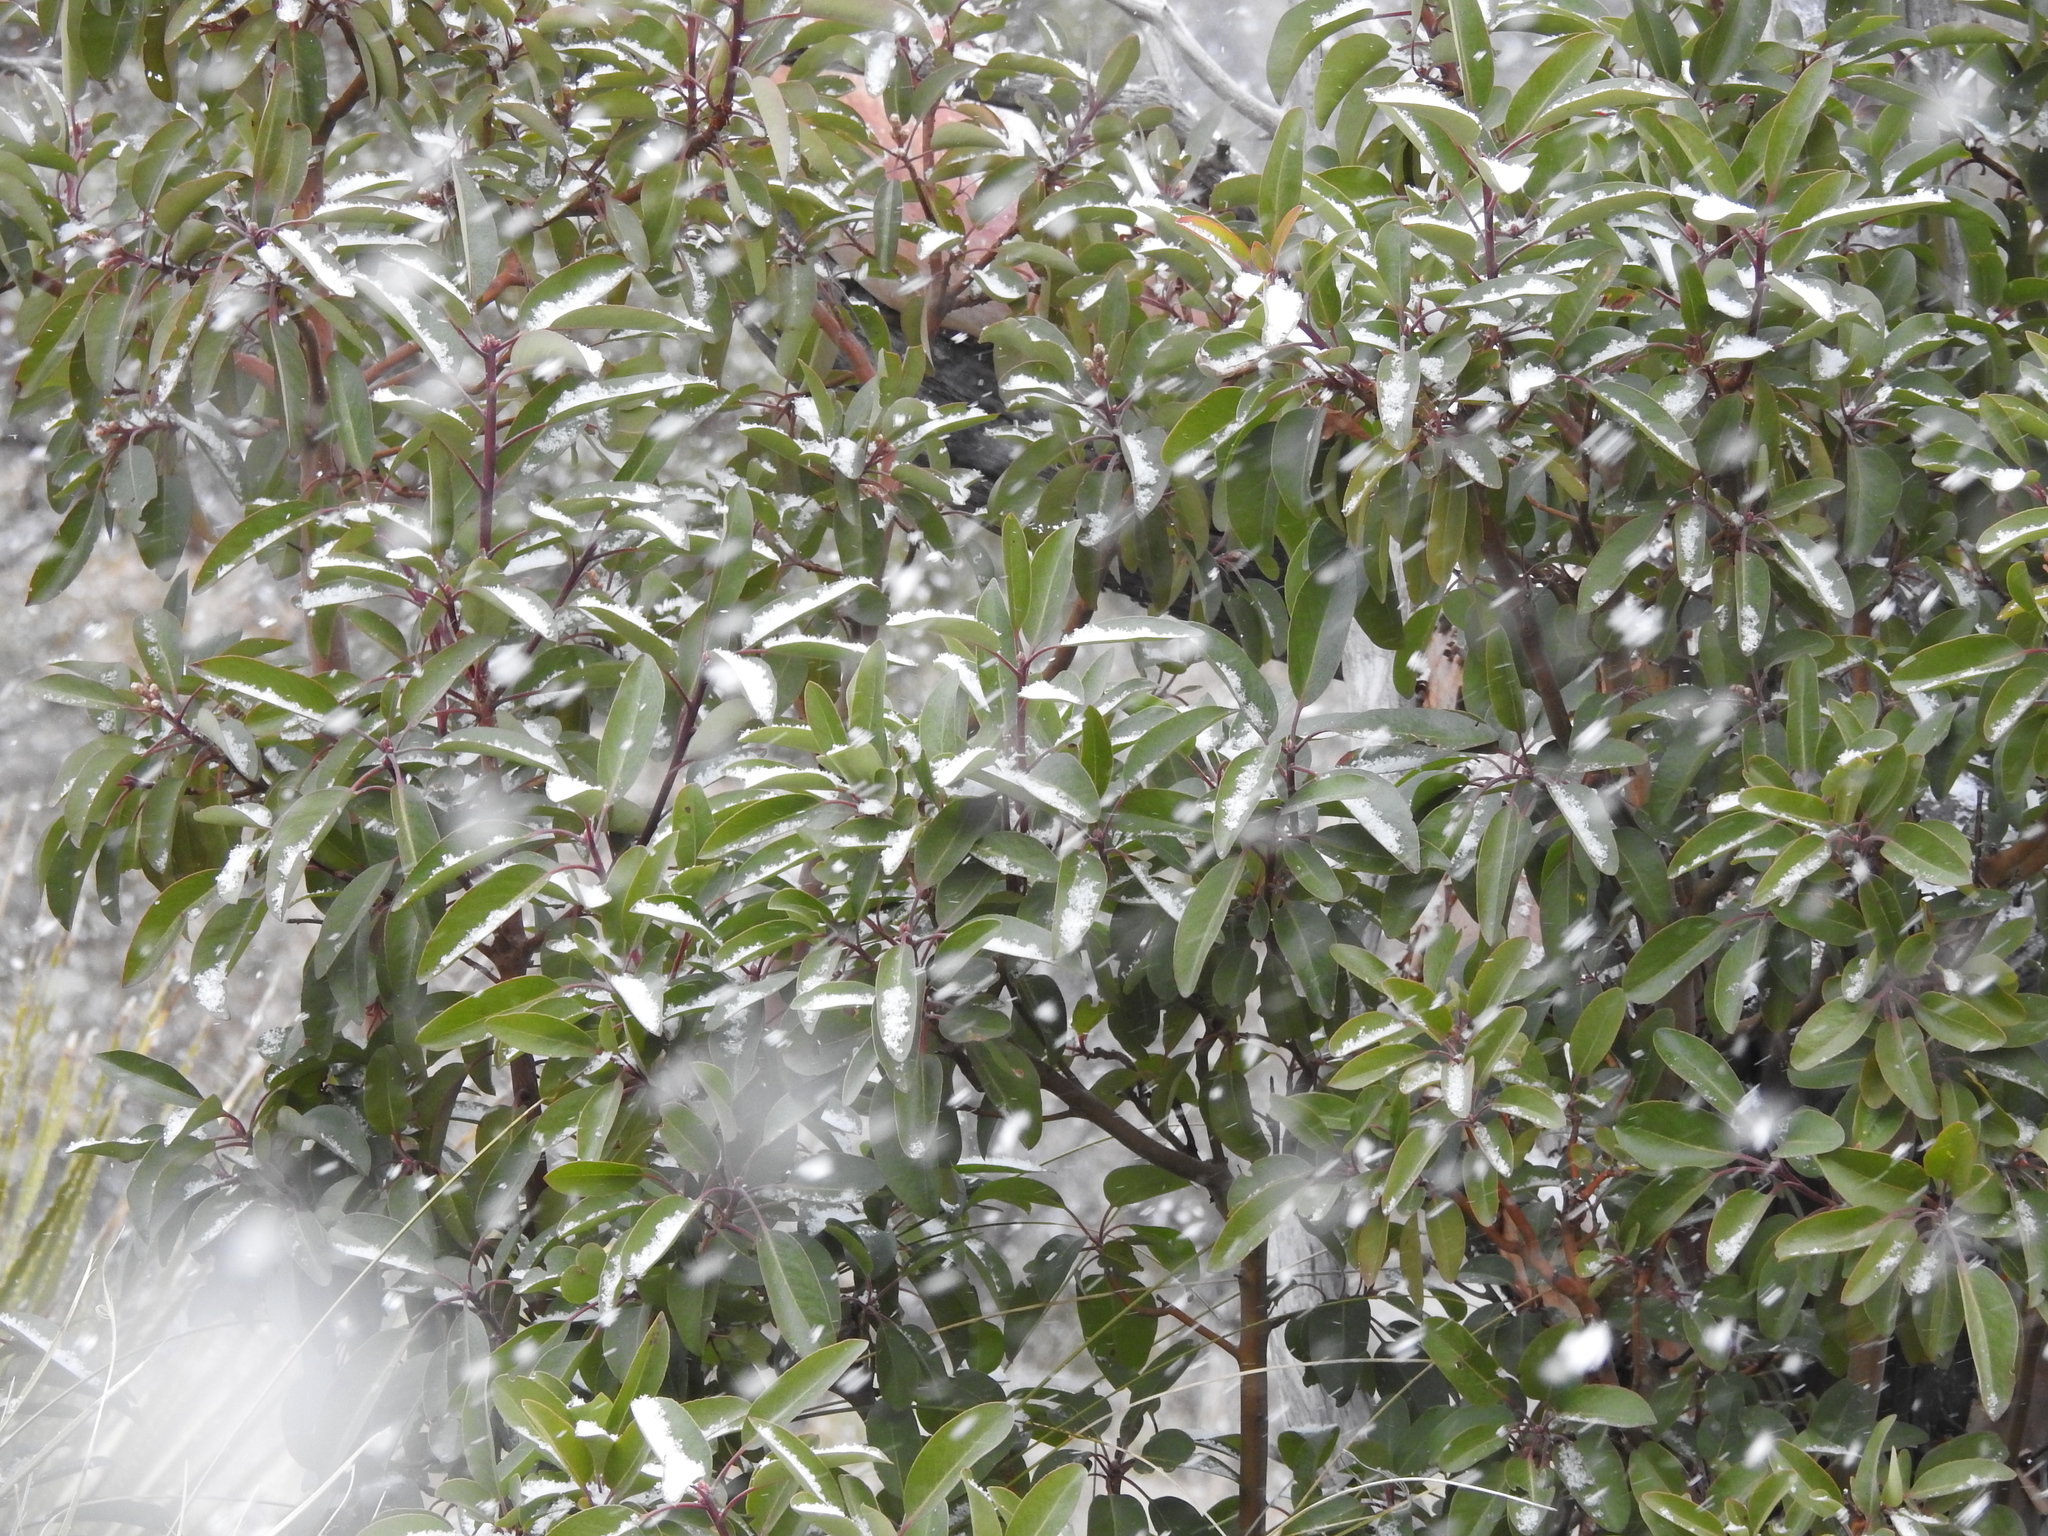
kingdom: Plantae
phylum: Tracheophyta
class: Magnoliopsida
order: Ericales
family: Ericaceae
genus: Arbutus
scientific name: Arbutus xalapensis
